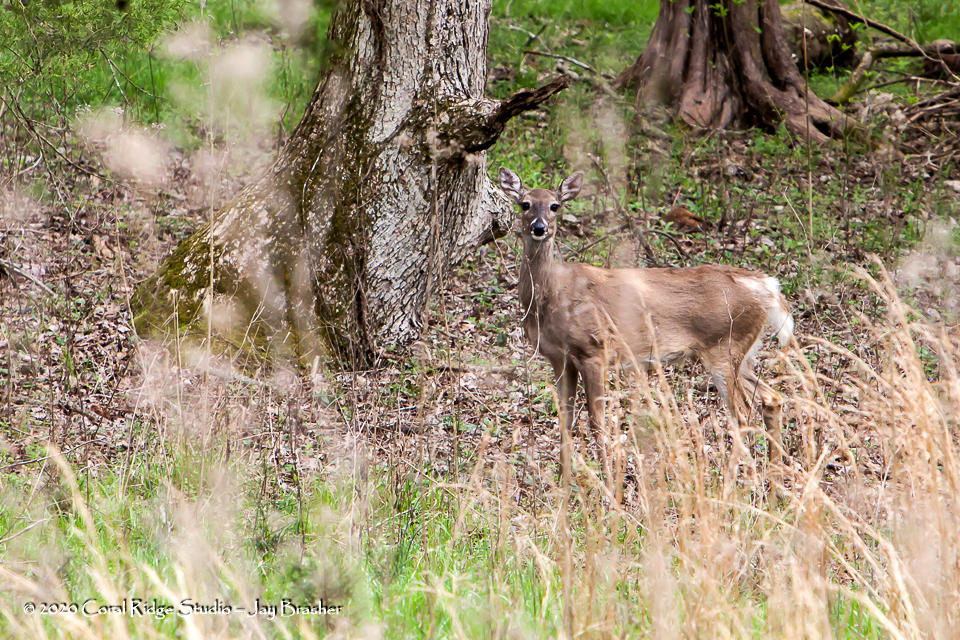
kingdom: Animalia
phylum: Chordata
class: Mammalia
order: Artiodactyla
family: Cervidae
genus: Odocoileus
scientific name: Odocoileus virginianus
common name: White-tailed deer
